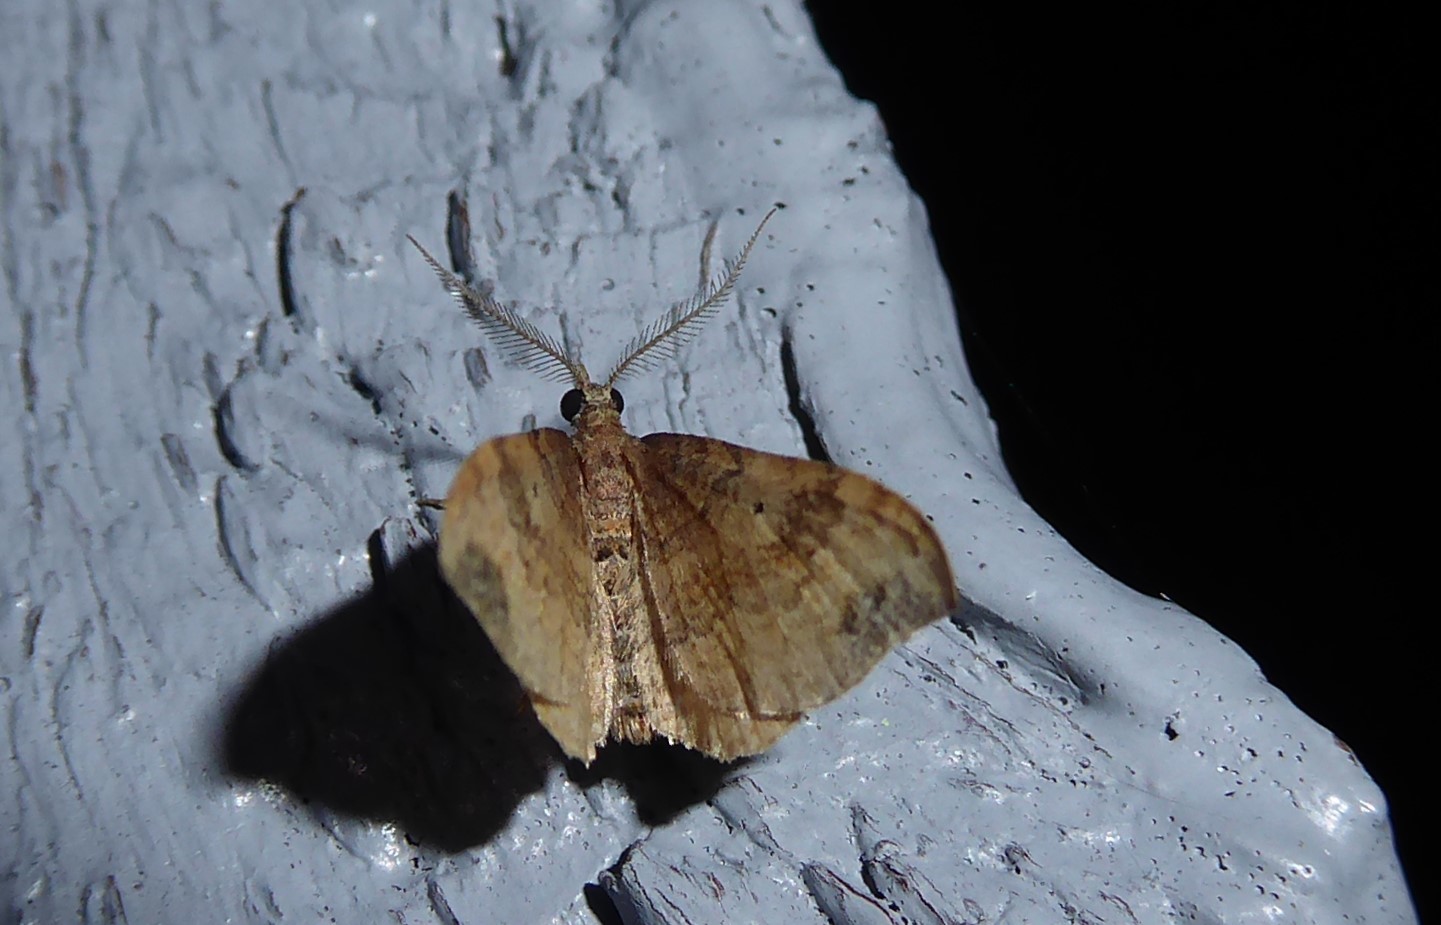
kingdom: Animalia
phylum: Arthropoda
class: Insecta
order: Lepidoptera
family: Geometridae
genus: Homodotis
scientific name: Homodotis megaspilata
